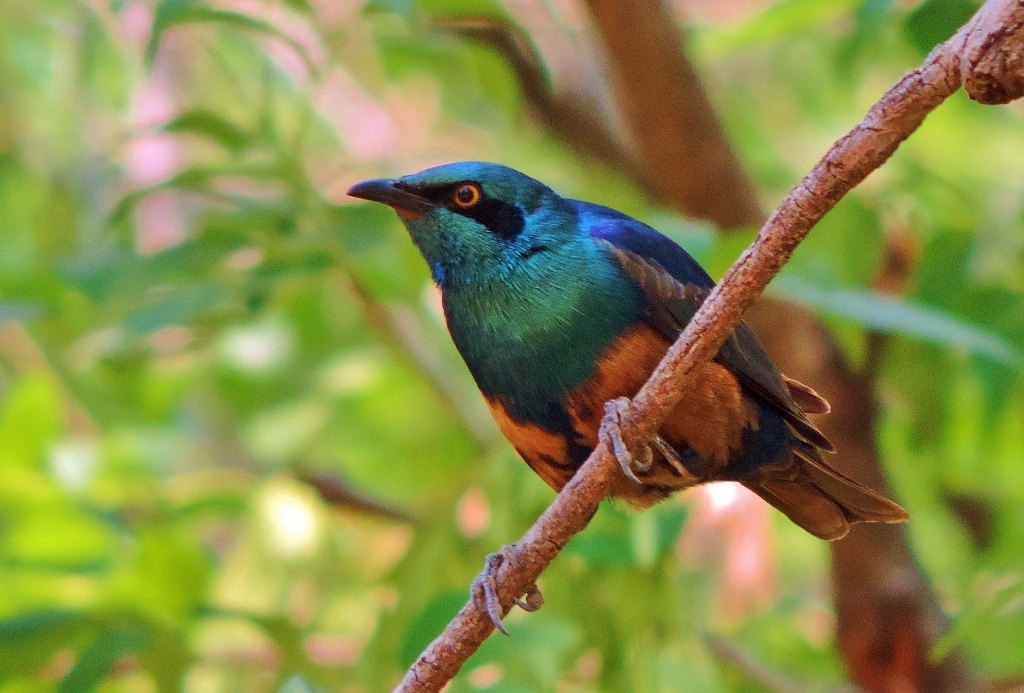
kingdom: Animalia
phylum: Chordata
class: Aves
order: Passeriformes
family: Sturnidae
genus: Lamprotornis
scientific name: Lamprotornis chloropterus
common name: Lesser blue-eared starling
